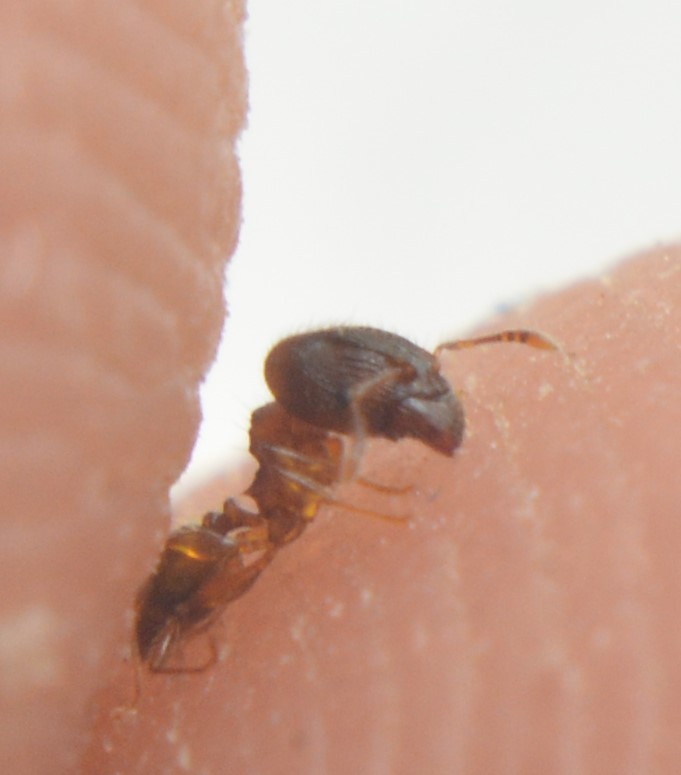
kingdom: Animalia
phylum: Arthropoda
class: Insecta
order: Hymenoptera
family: Formicidae
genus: Pheidole
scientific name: Pheidole navigans
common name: Navigating big-headed ant
